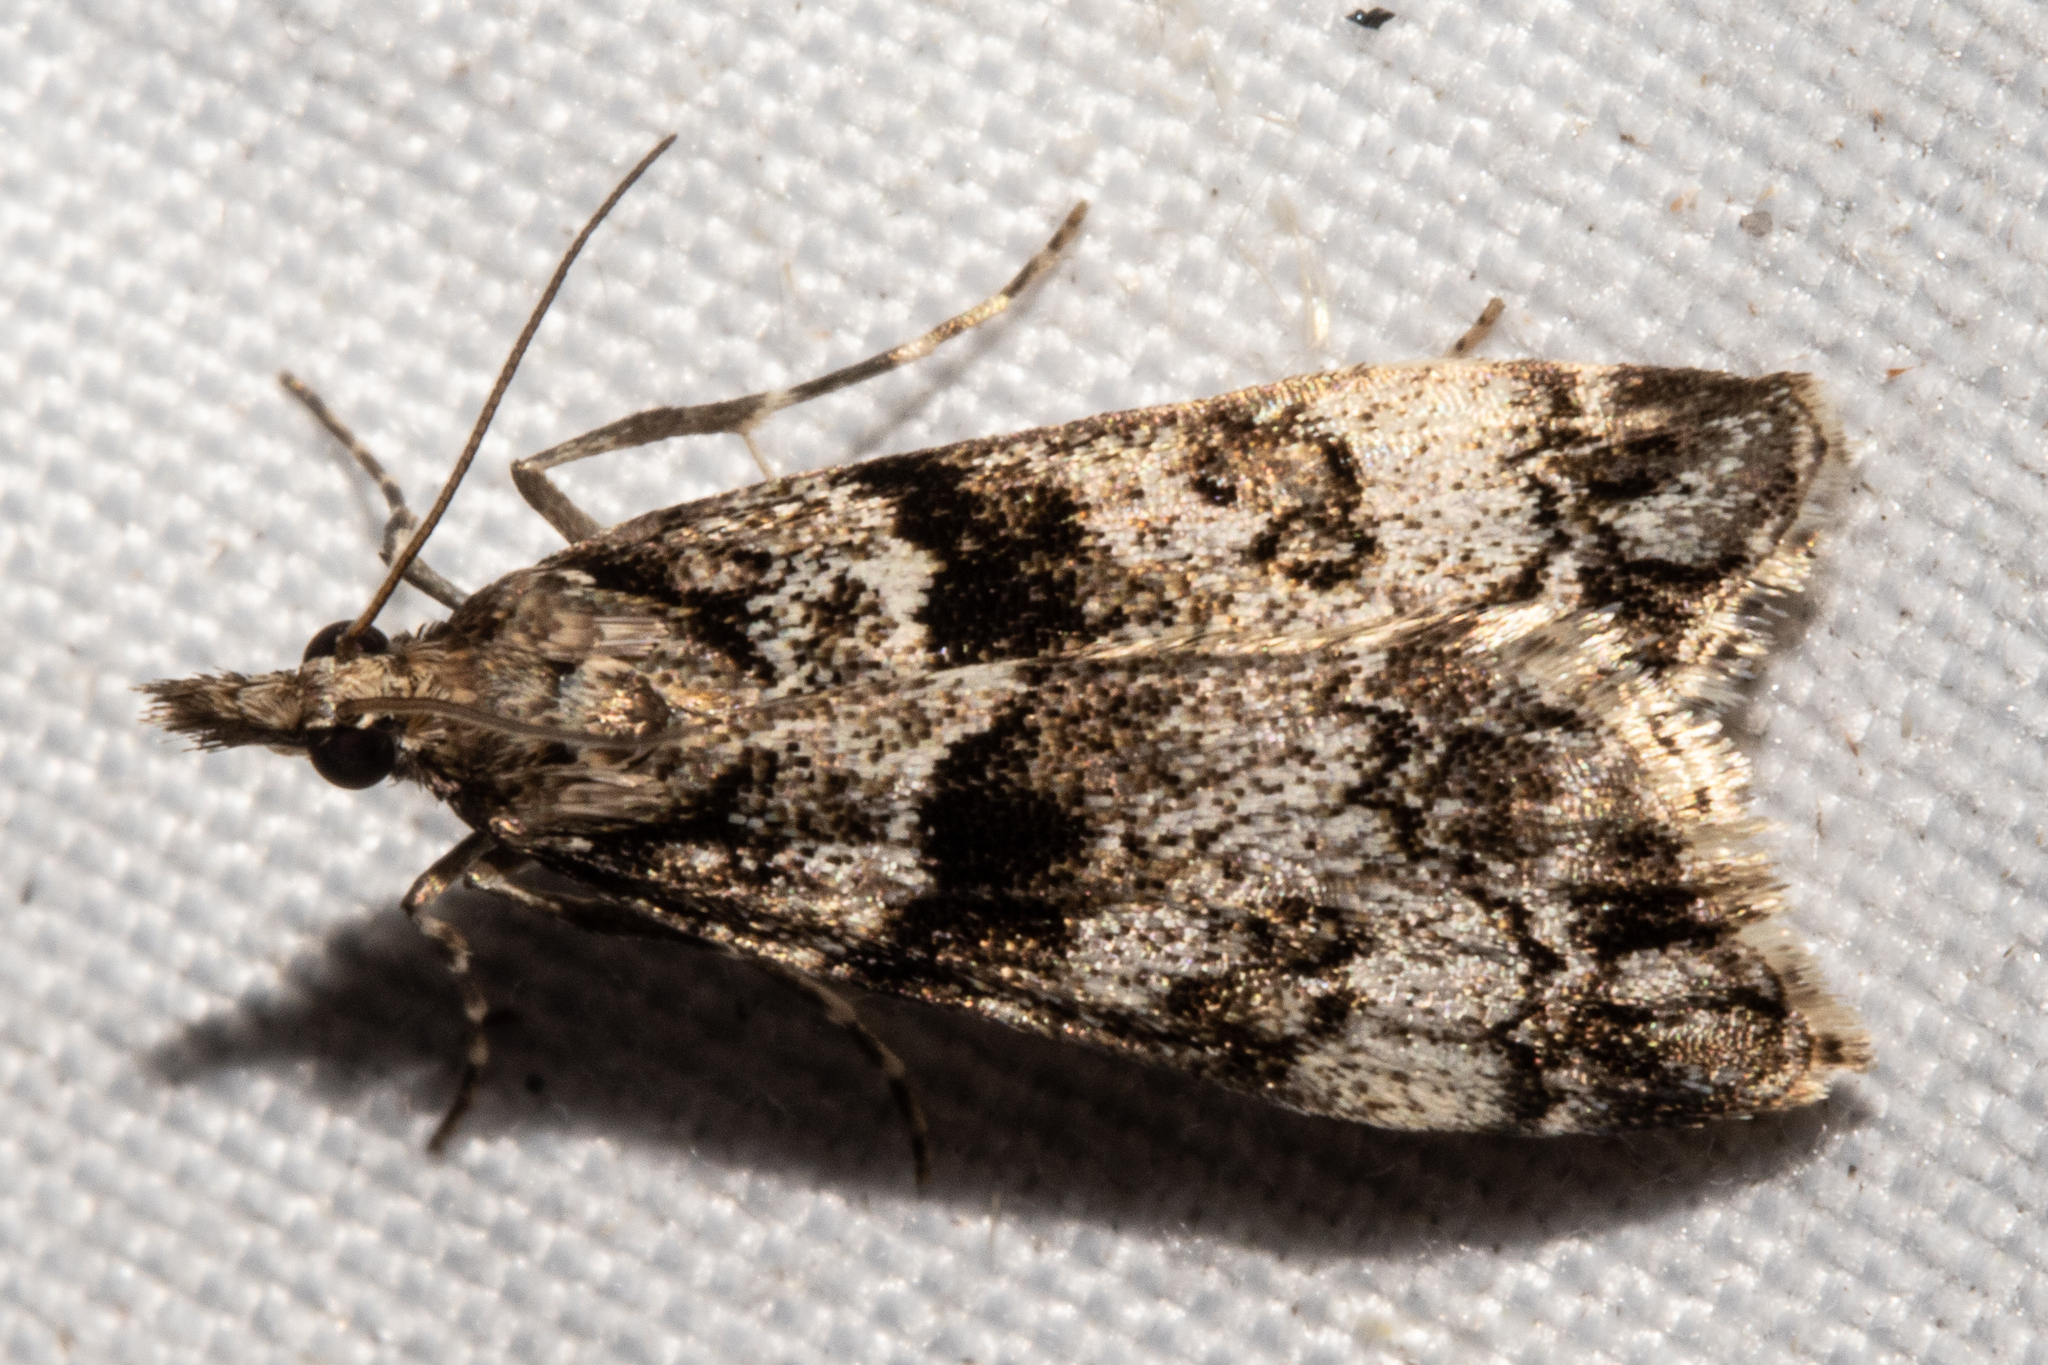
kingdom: Animalia
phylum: Arthropoda
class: Insecta
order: Lepidoptera
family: Crambidae
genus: Eudonia
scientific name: Eudonia torodes
